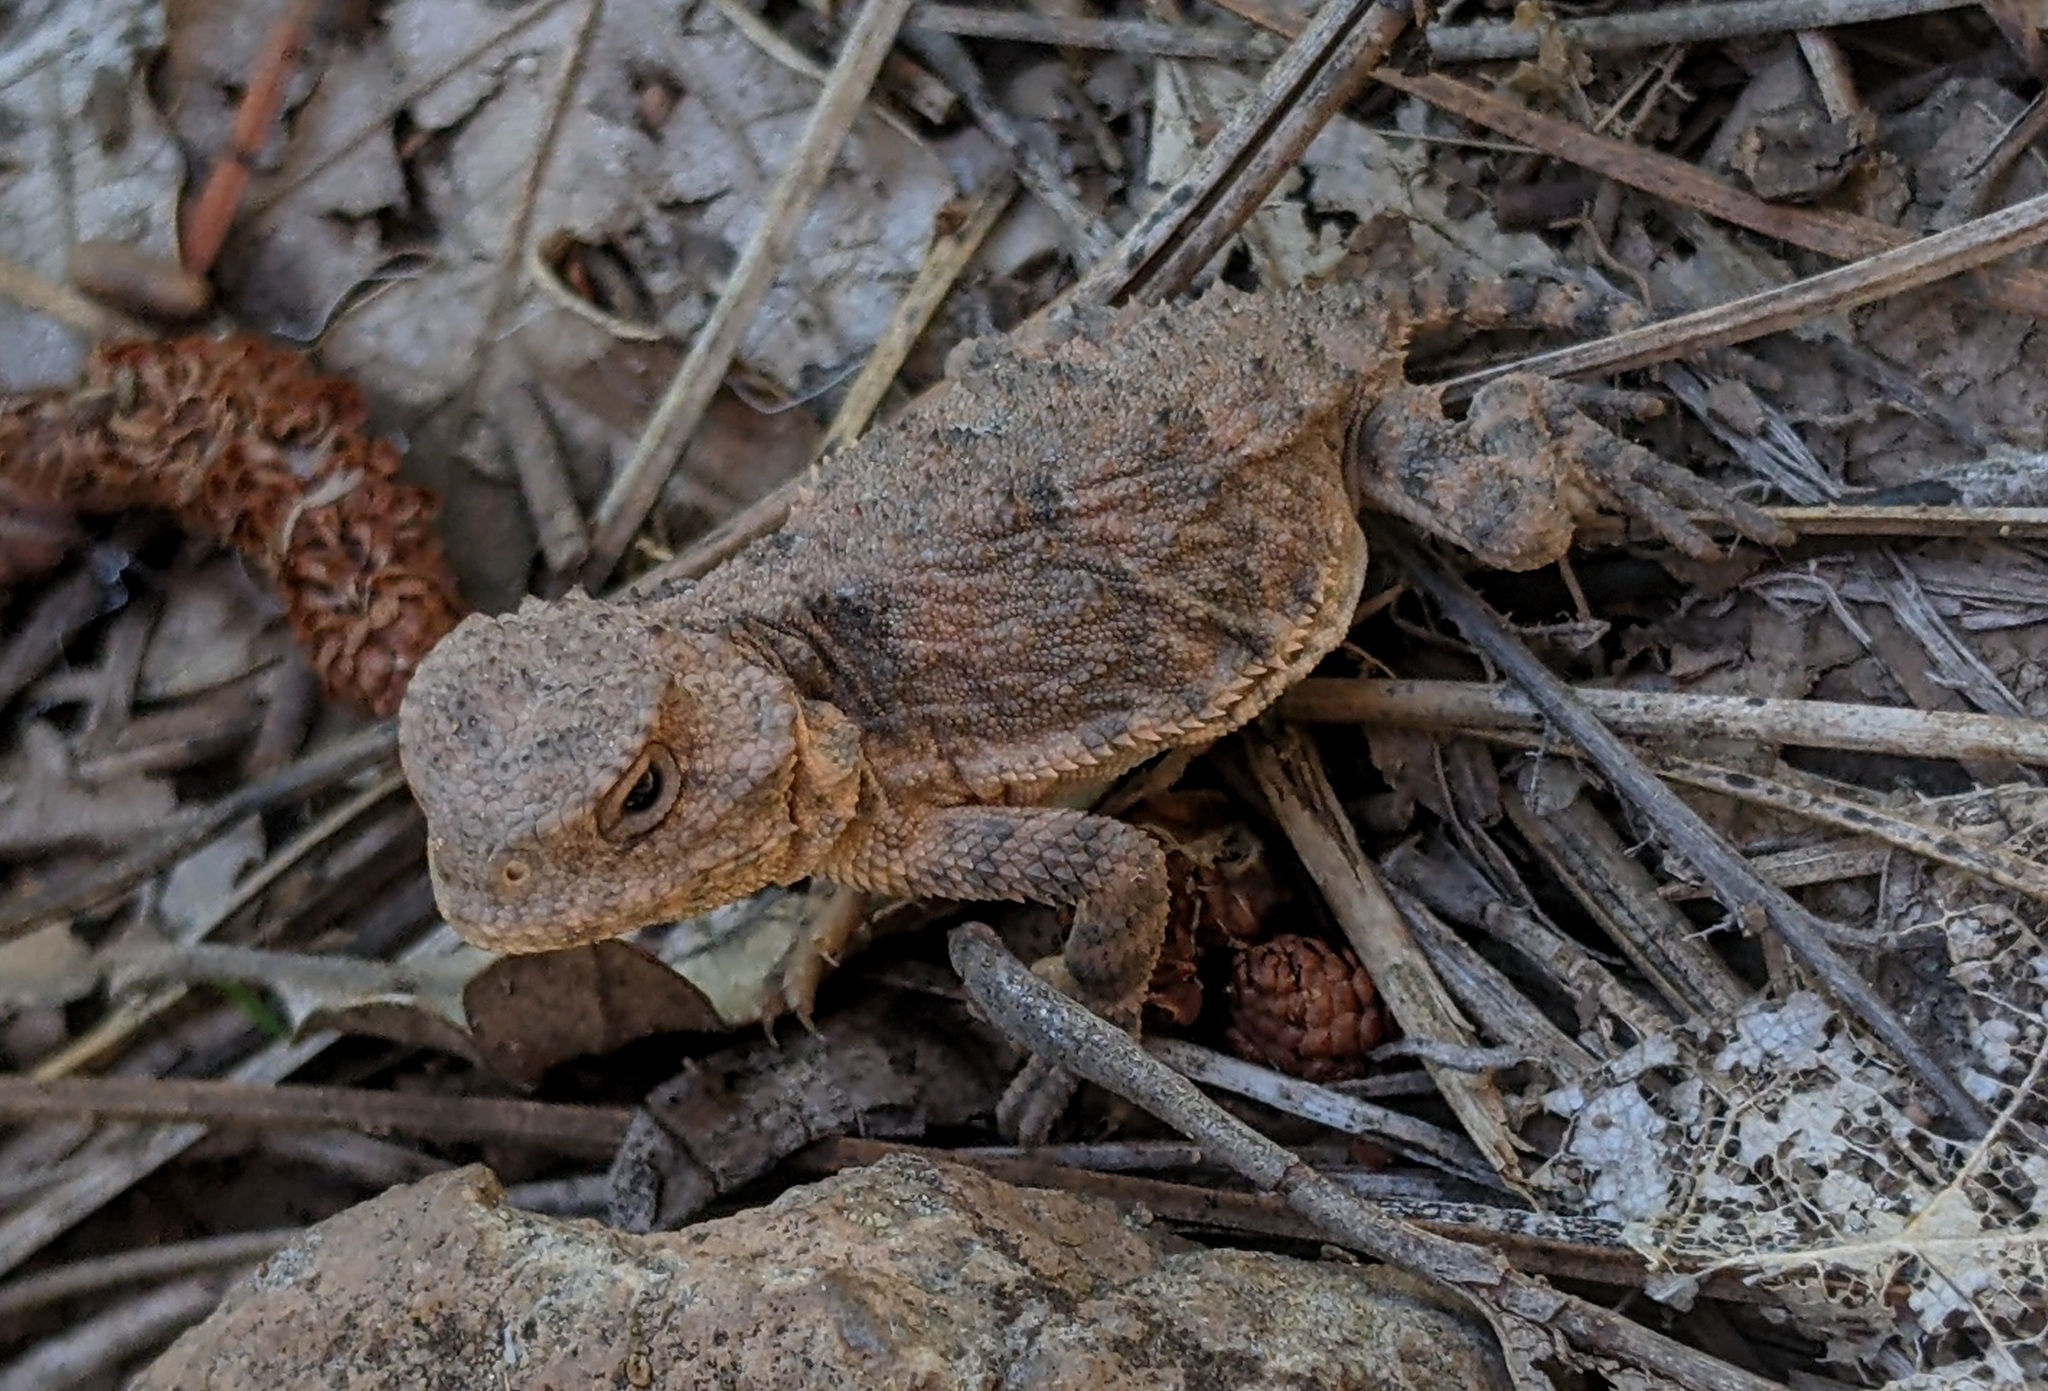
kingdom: Animalia
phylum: Chordata
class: Squamata
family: Phrynosomatidae
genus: Phrynosoma
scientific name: Phrynosoma hernandesi
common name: Greater short-horned lizard
